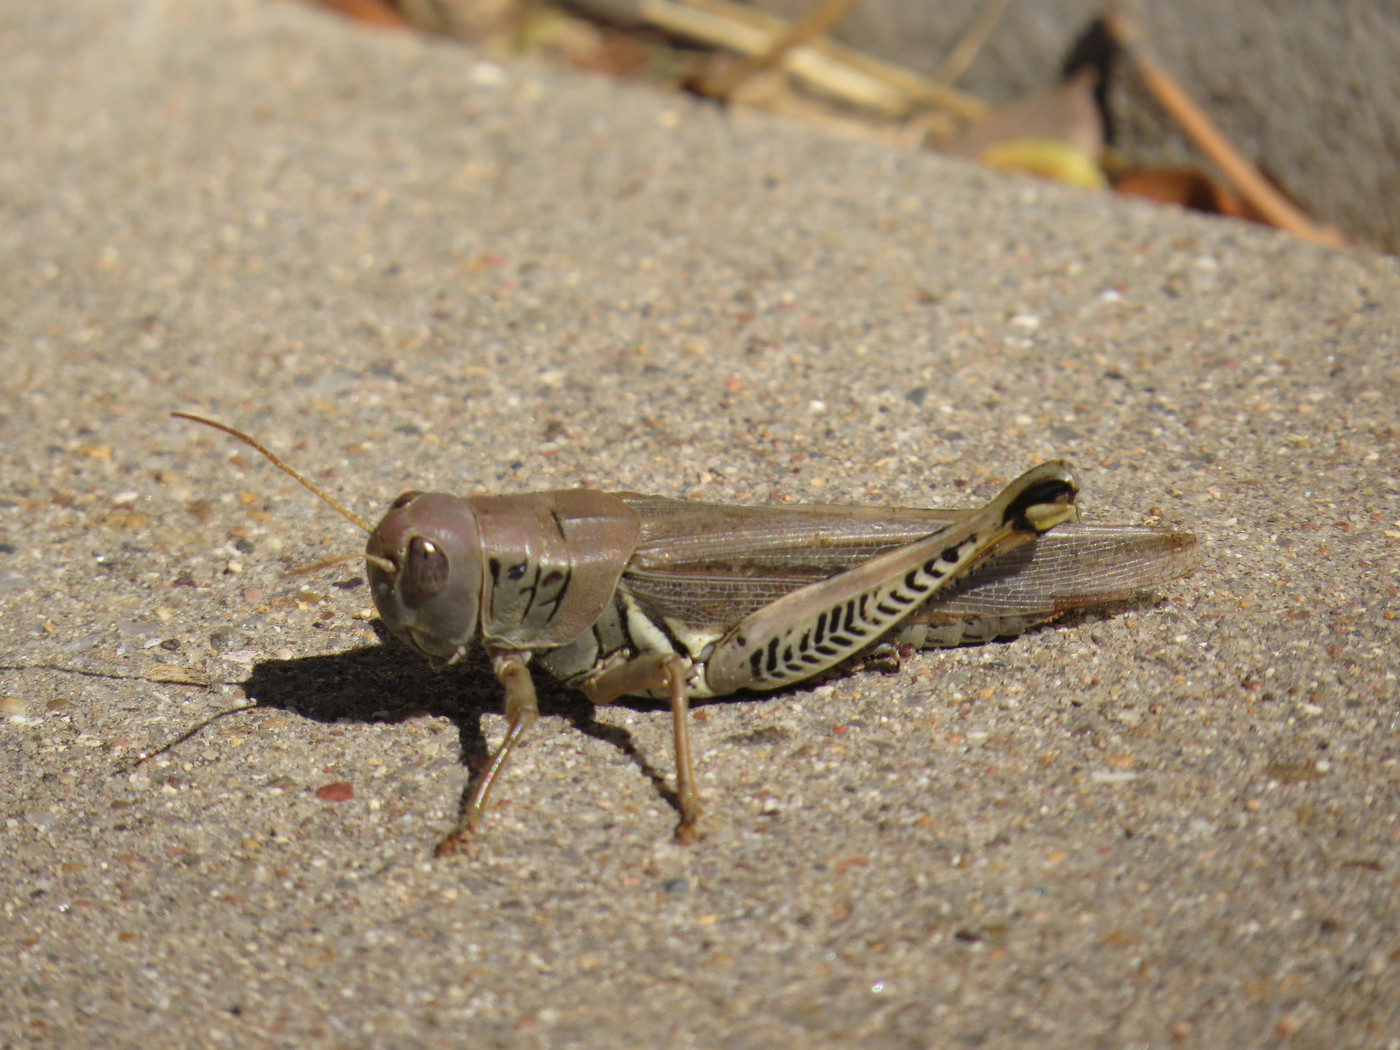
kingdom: Animalia
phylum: Arthropoda
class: Insecta
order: Orthoptera
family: Acrididae
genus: Melanoplus
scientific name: Melanoplus differentialis
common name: Differential grasshopper
